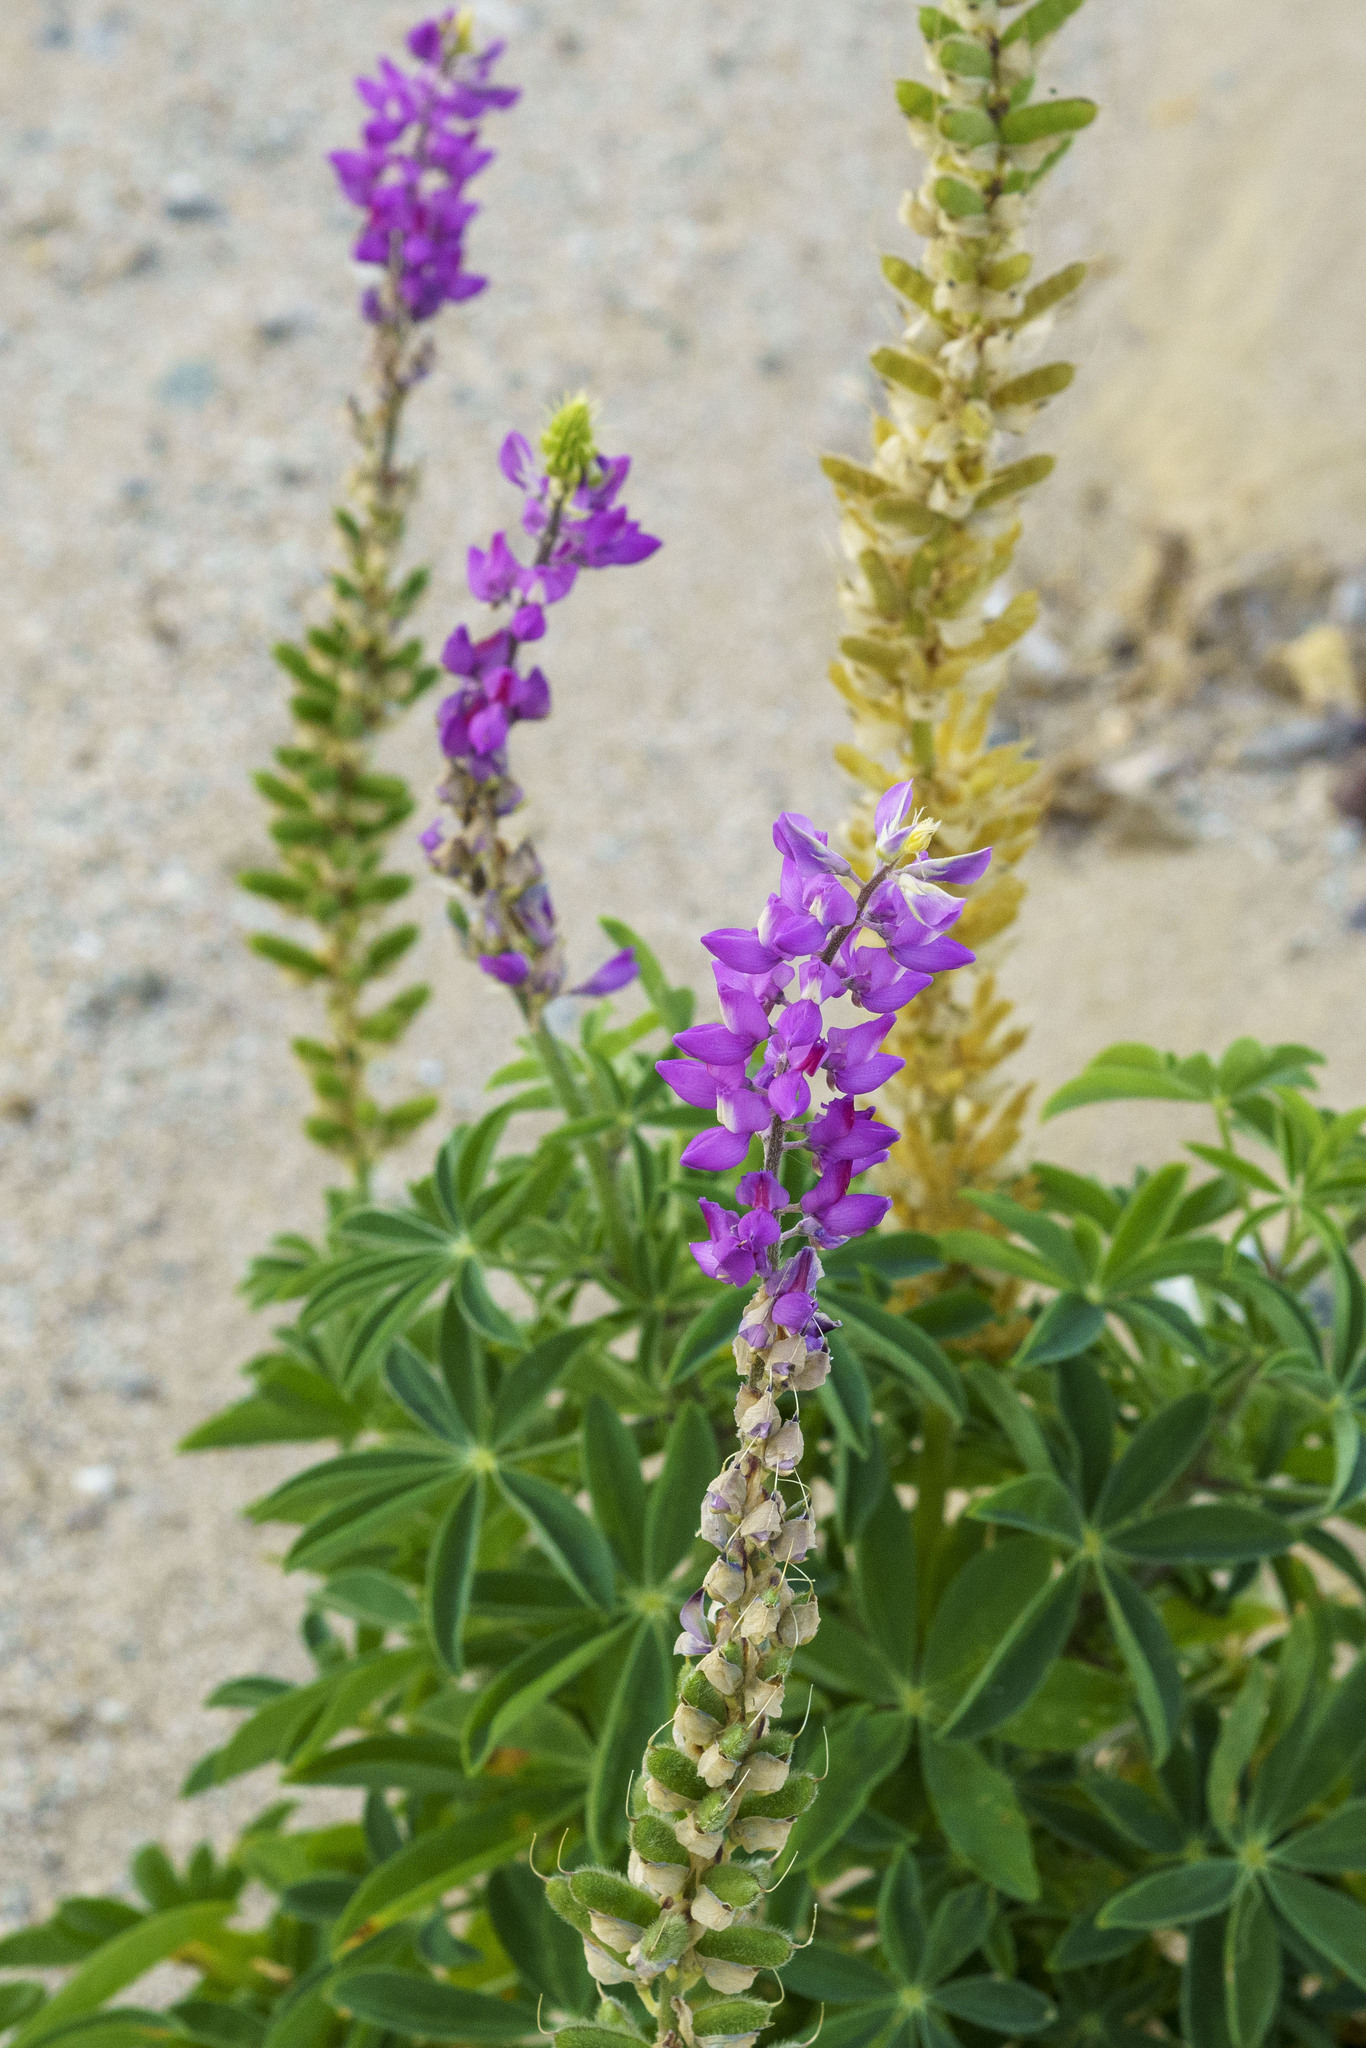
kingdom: Plantae
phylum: Tracheophyta
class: Magnoliopsida
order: Fabales
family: Fabaceae
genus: Lupinus
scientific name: Lupinus arizonicus
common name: Arizona lupine
